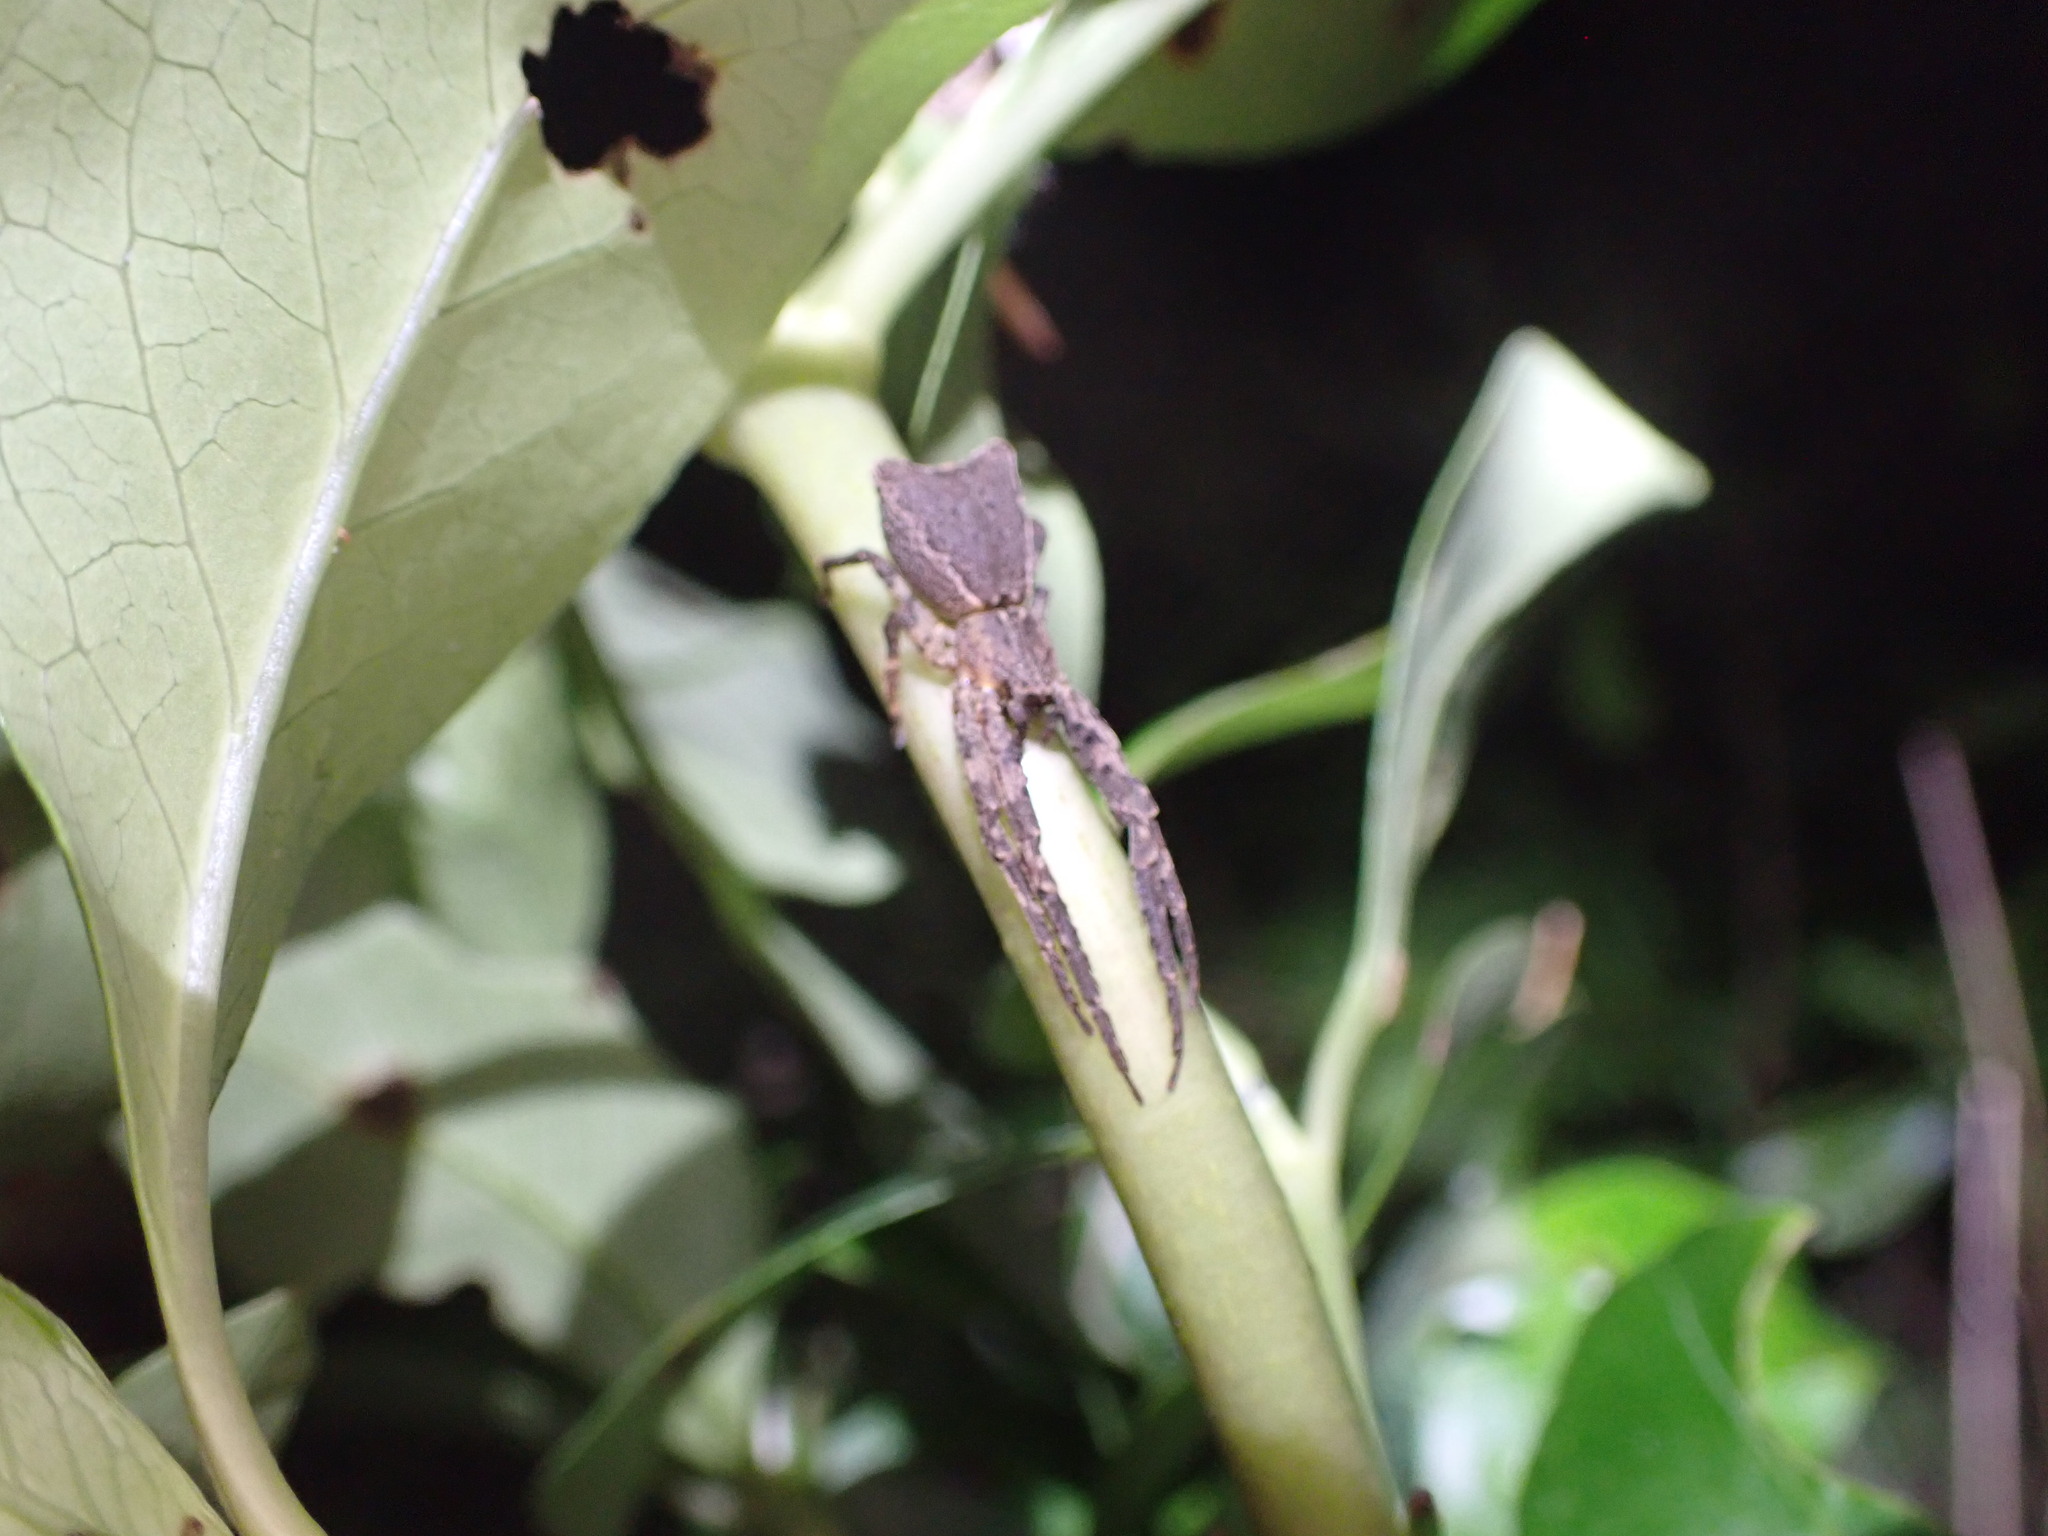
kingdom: Animalia
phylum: Arthropoda
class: Arachnida
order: Araneae
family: Thomisidae
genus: Sidymella
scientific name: Sidymella angularis
